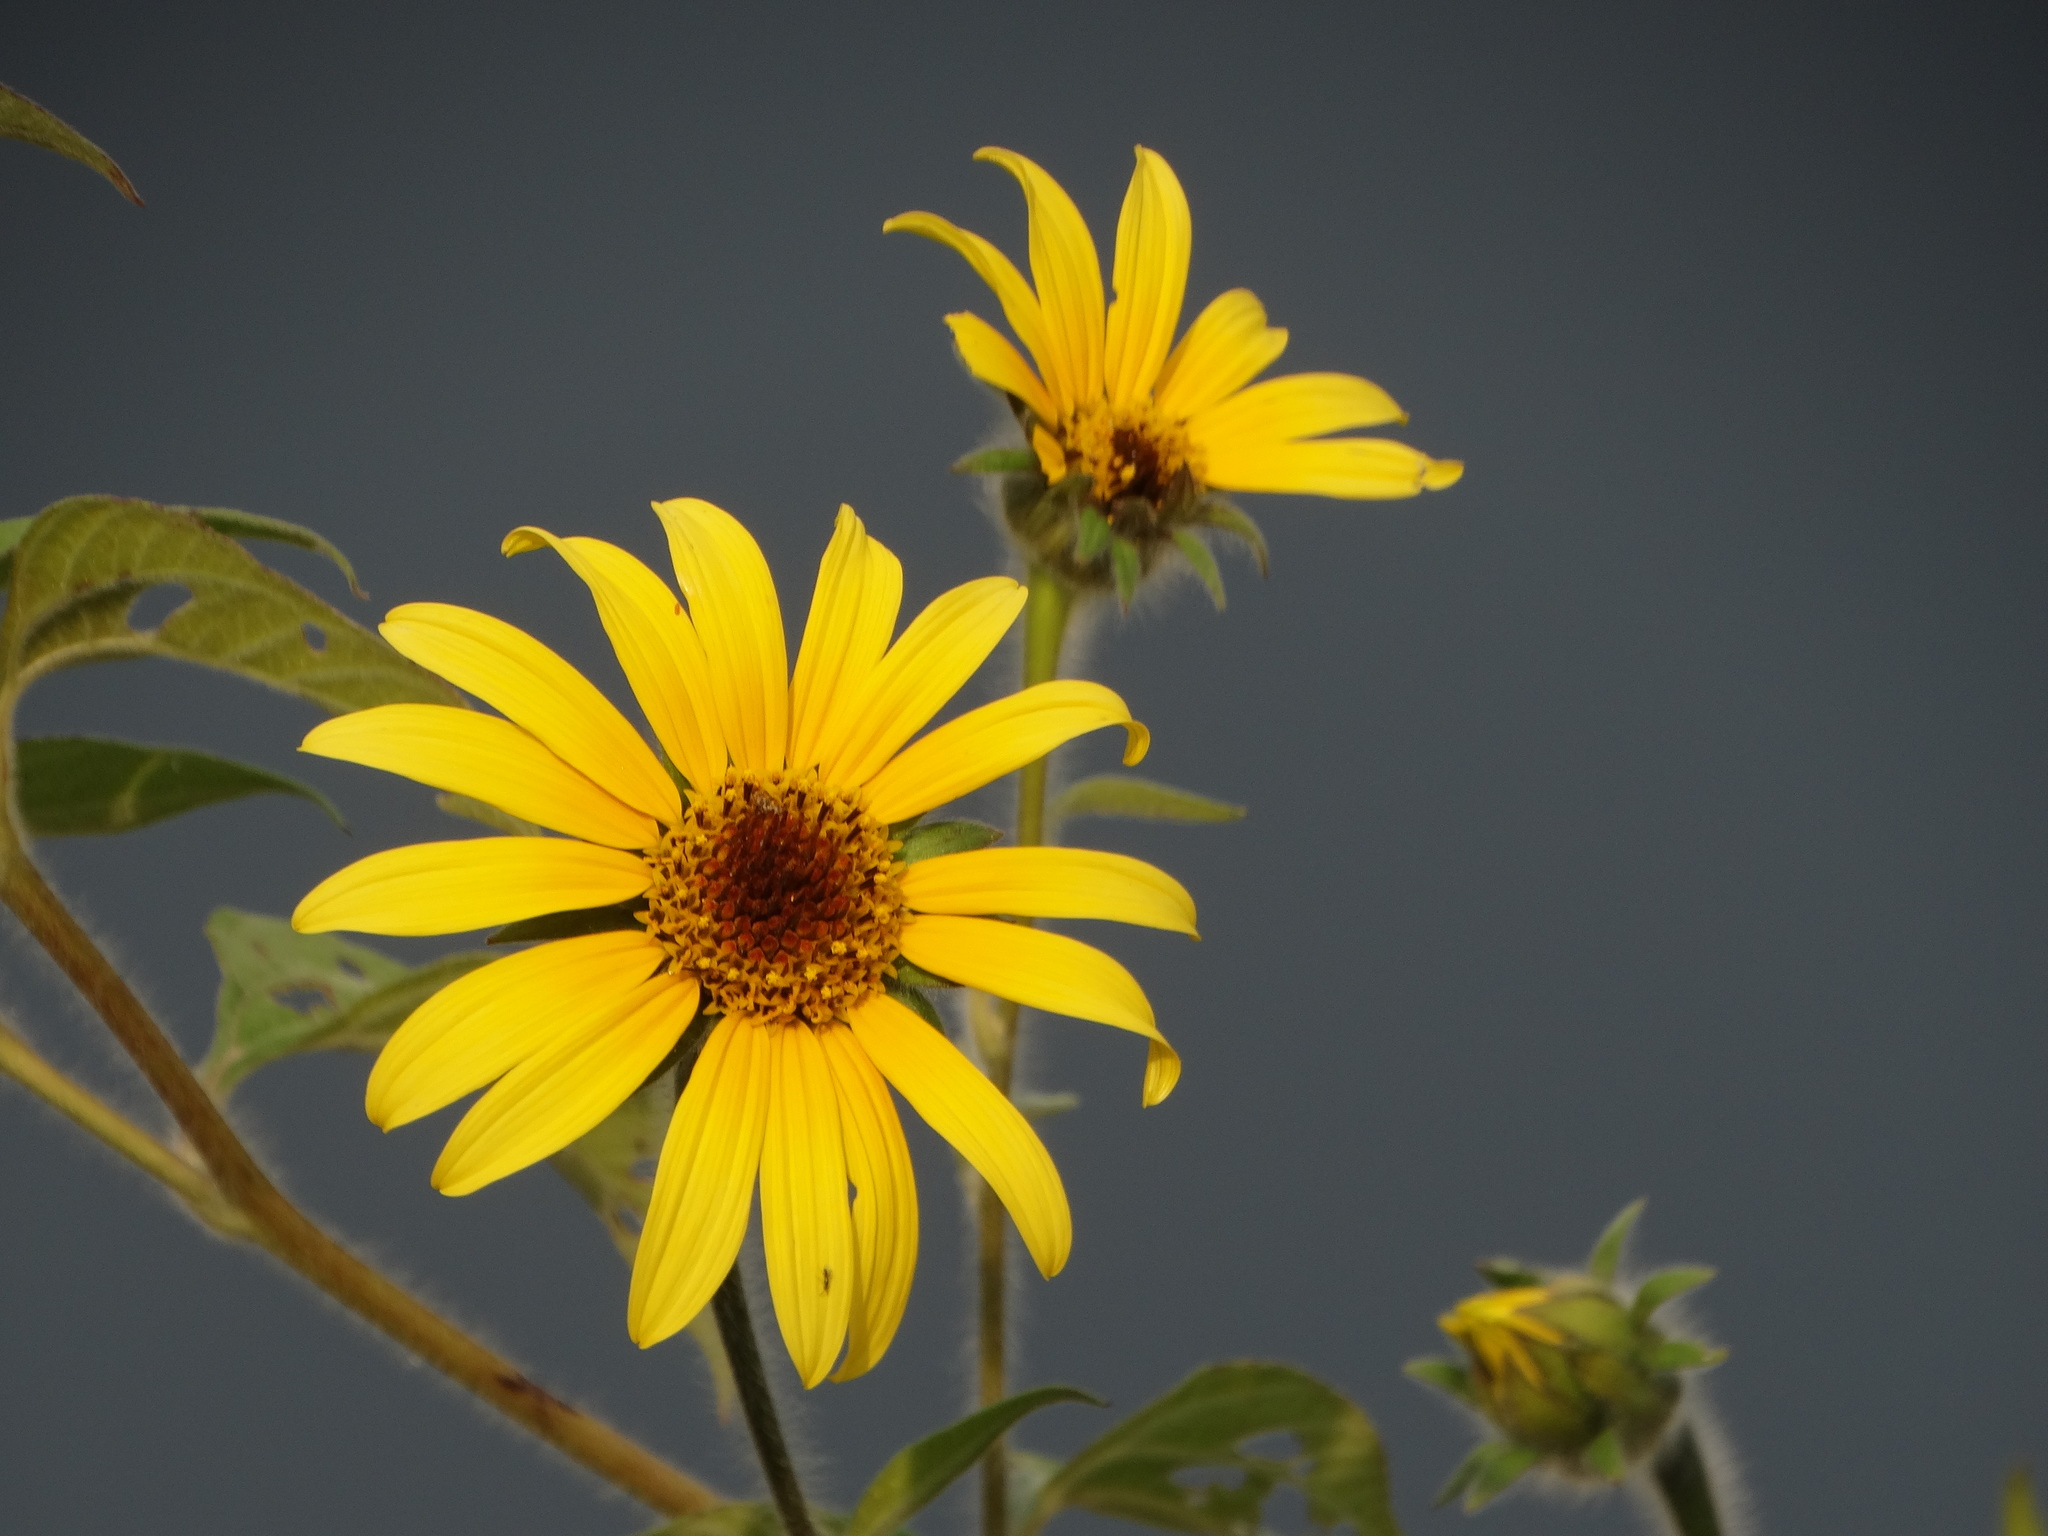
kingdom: Plantae
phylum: Tracheophyta
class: Magnoliopsida
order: Asterales
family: Asteraceae
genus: Tithonia
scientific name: Tithonia tubaeformis
